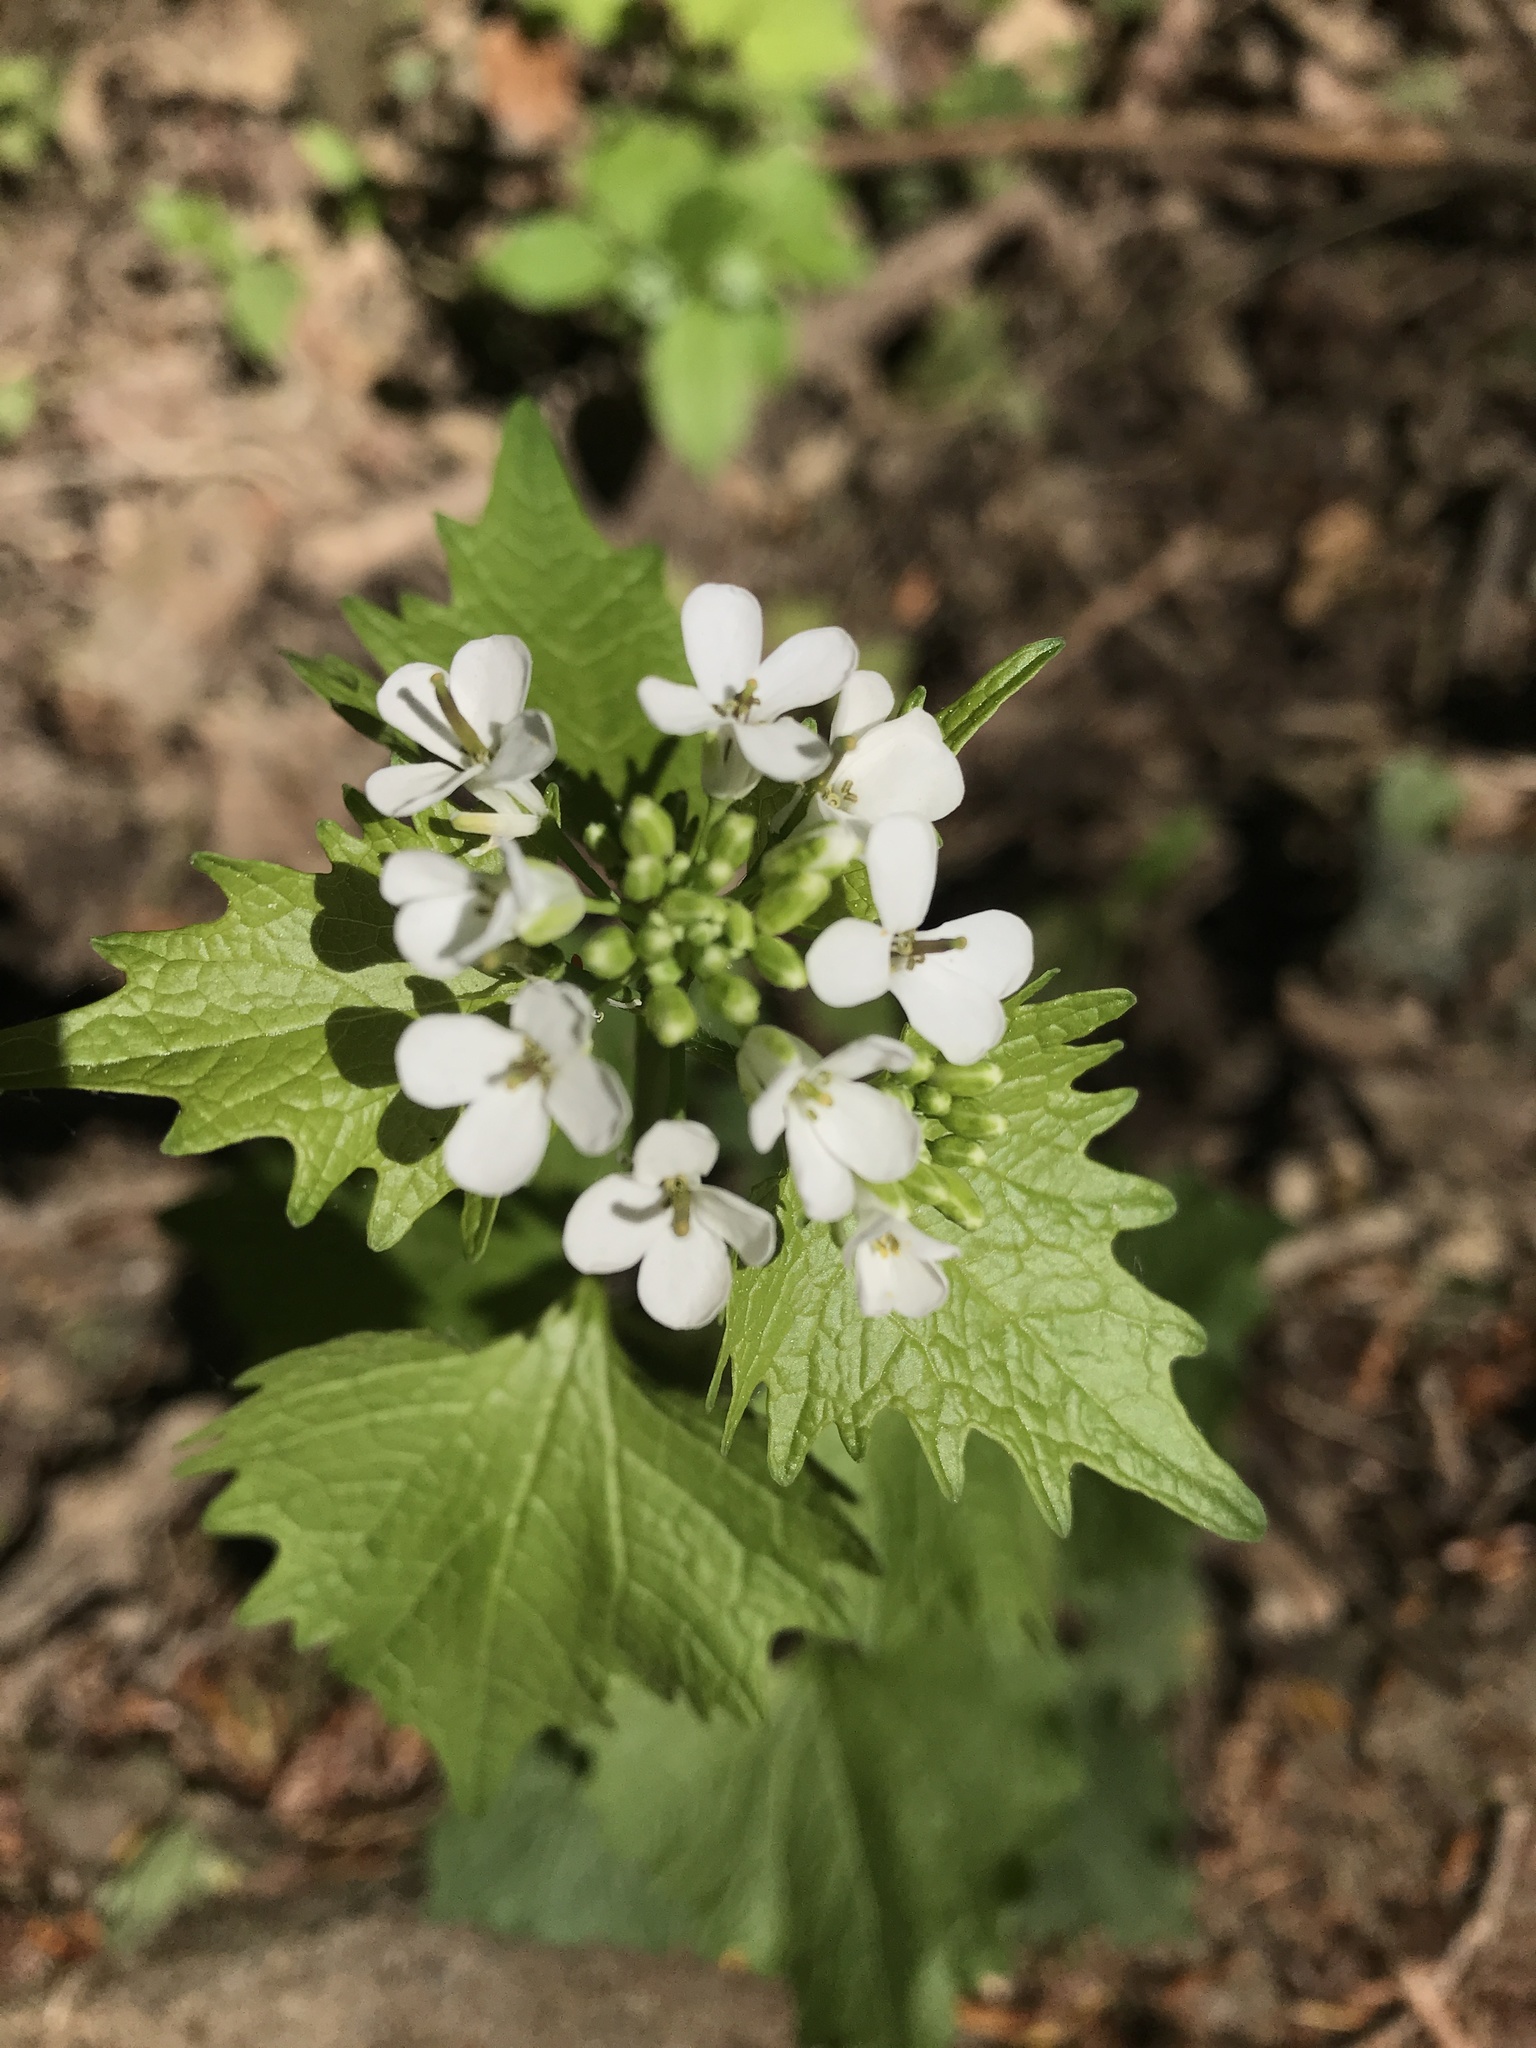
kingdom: Plantae
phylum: Tracheophyta
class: Magnoliopsida
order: Brassicales
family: Brassicaceae
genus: Alliaria
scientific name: Alliaria petiolata
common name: Garlic mustard
